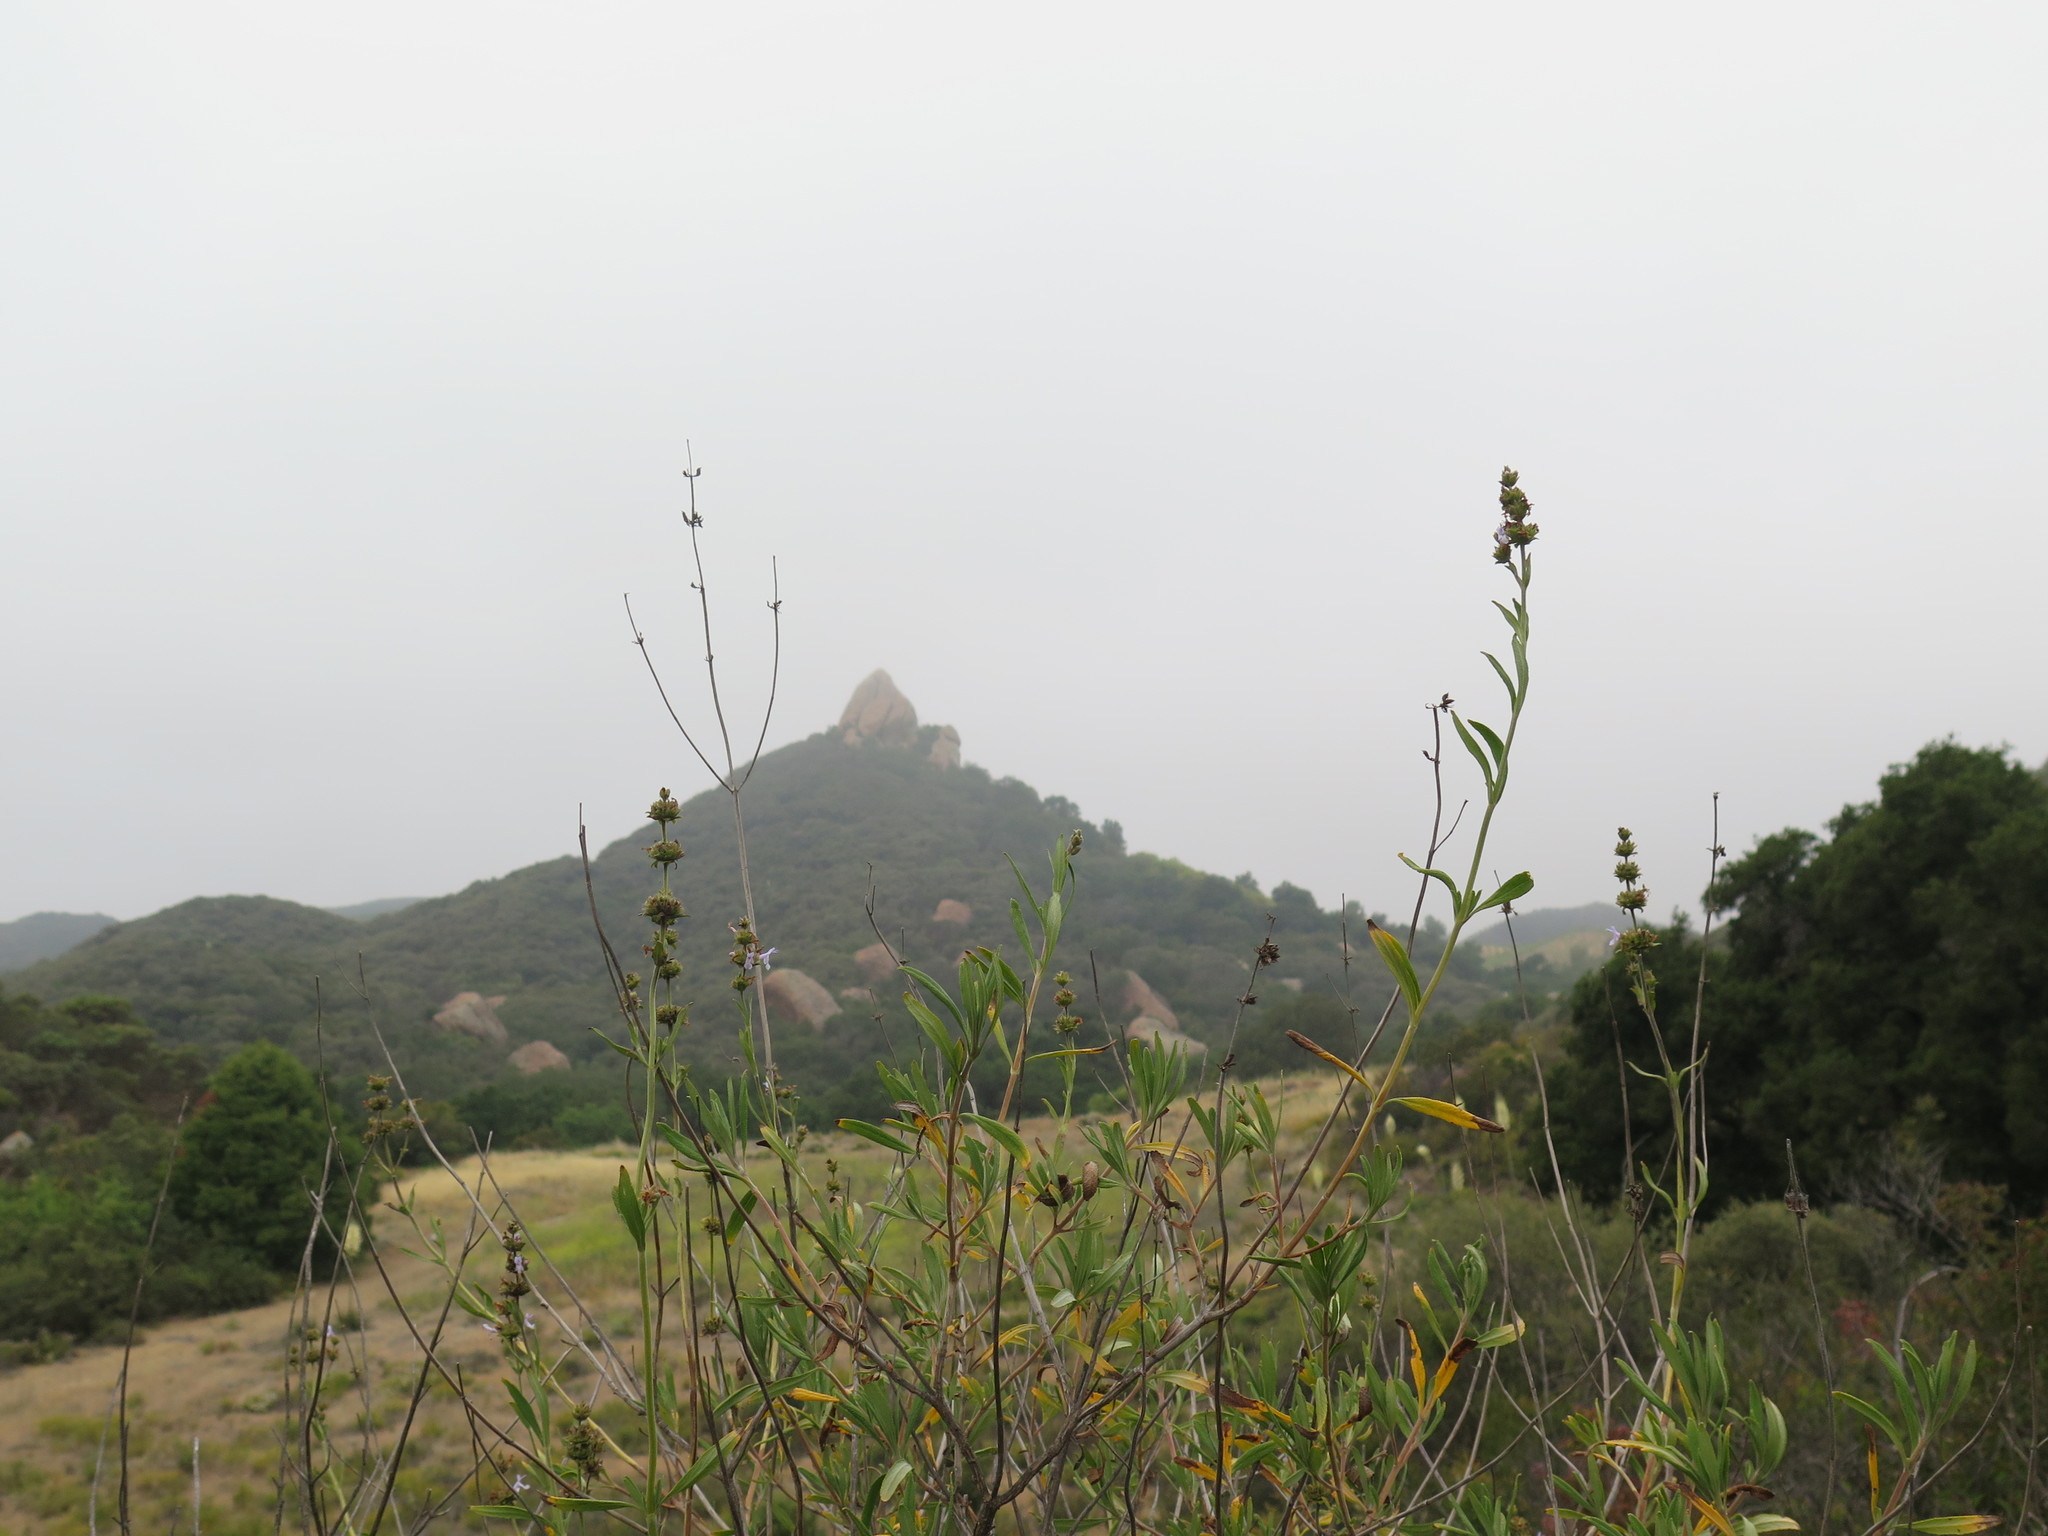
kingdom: Plantae
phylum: Tracheophyta
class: Magnoliopsida
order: Lamiales
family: Lamiaceae
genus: Salvia
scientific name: Salvia mellifera
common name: Black sage
